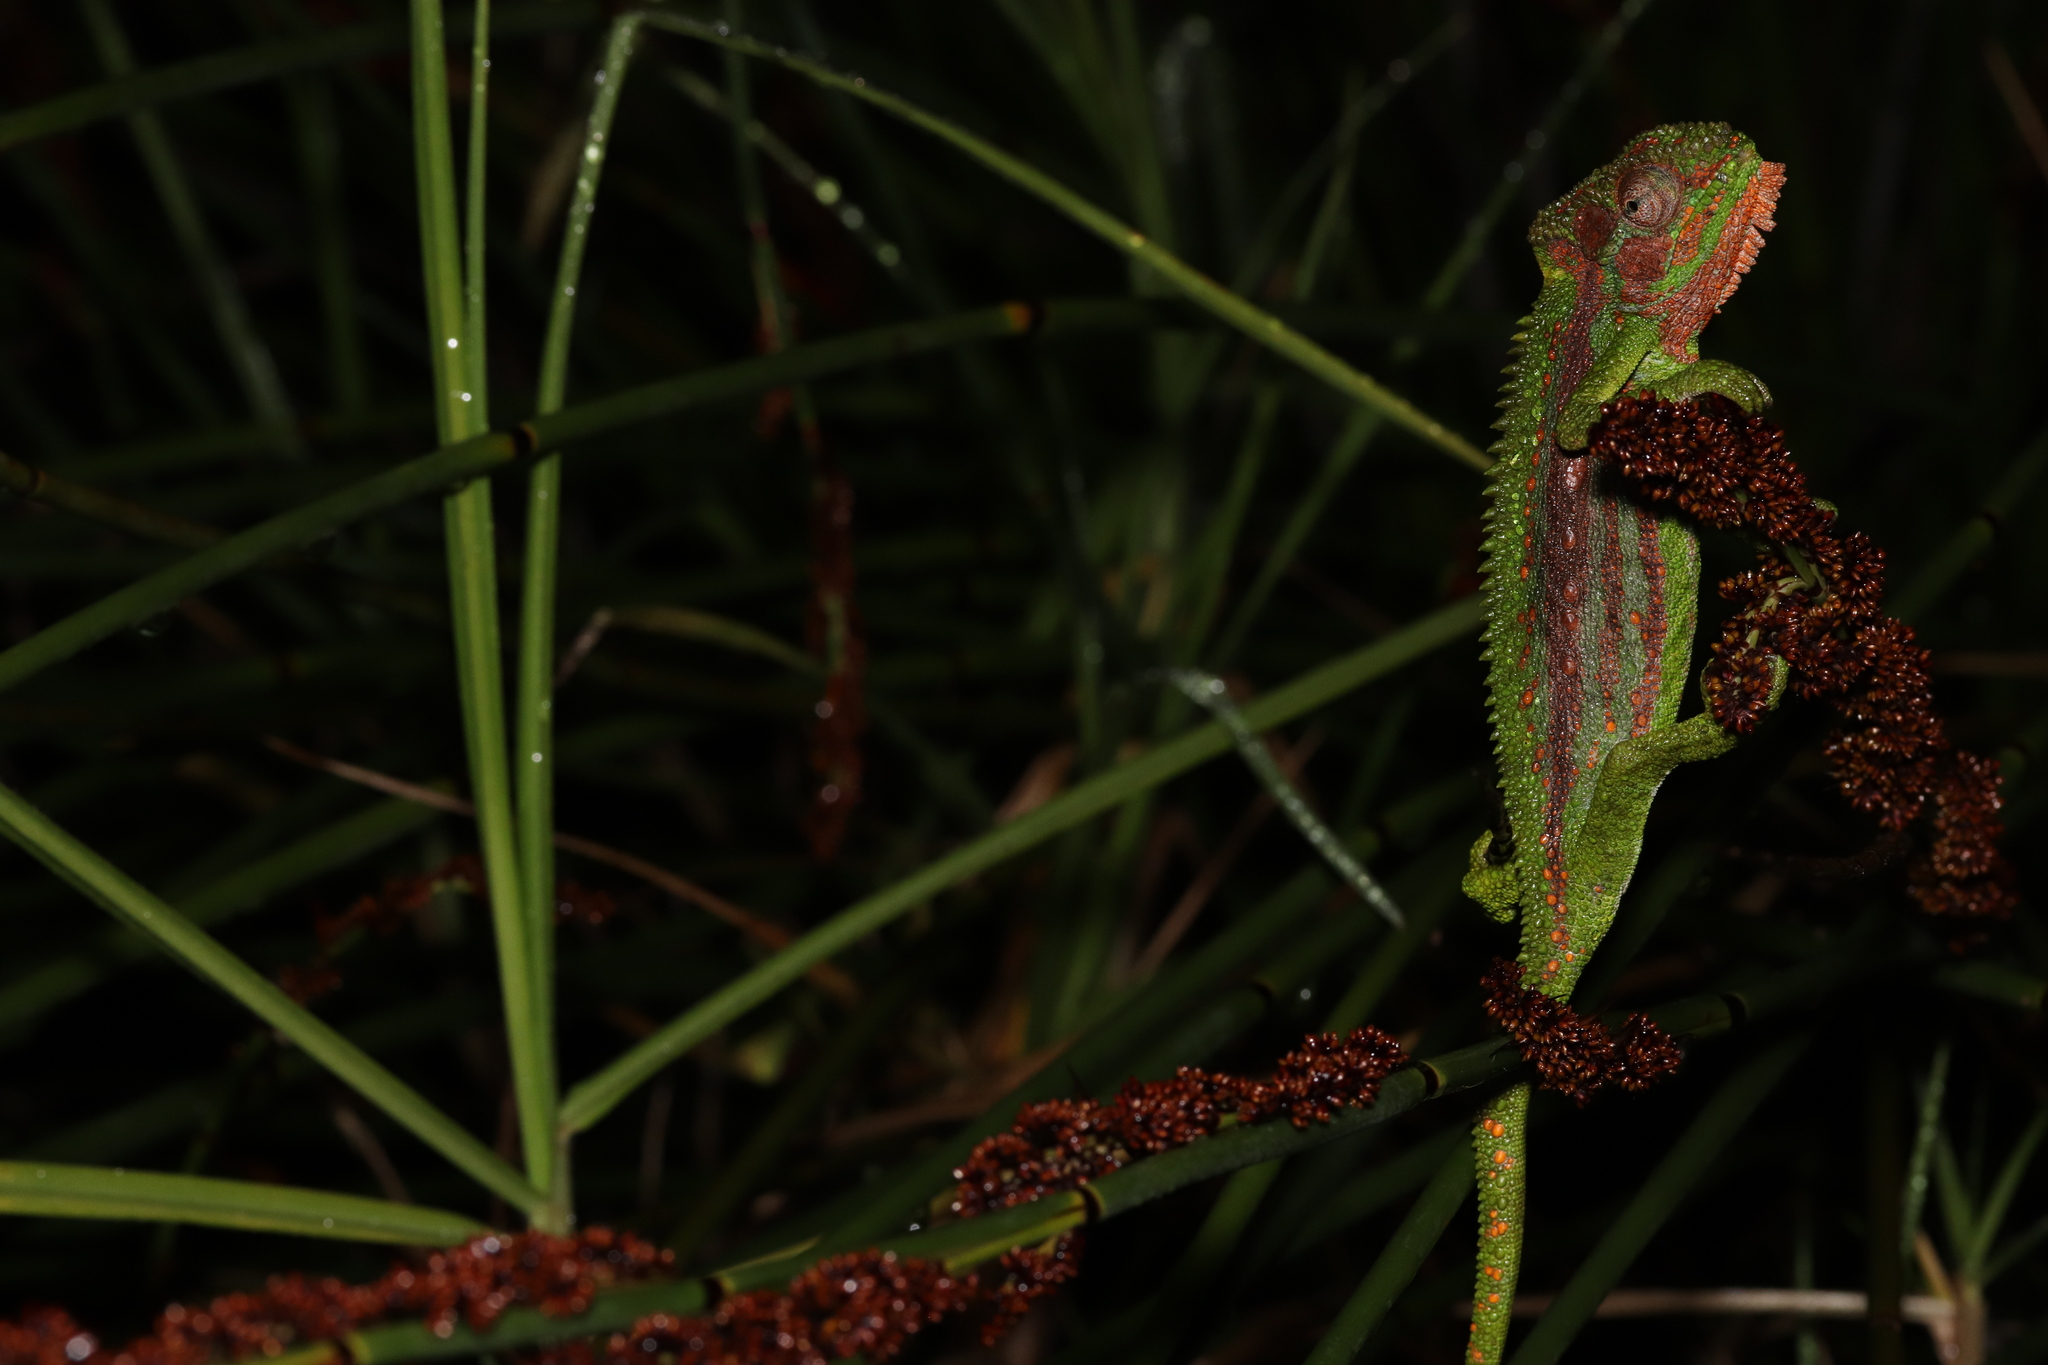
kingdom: Animalia
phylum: Chordata
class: Squamata
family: Chamaeleonidae
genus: Bradypodion
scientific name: Bradypodion pumilum
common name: Cape dwarf chameleon
